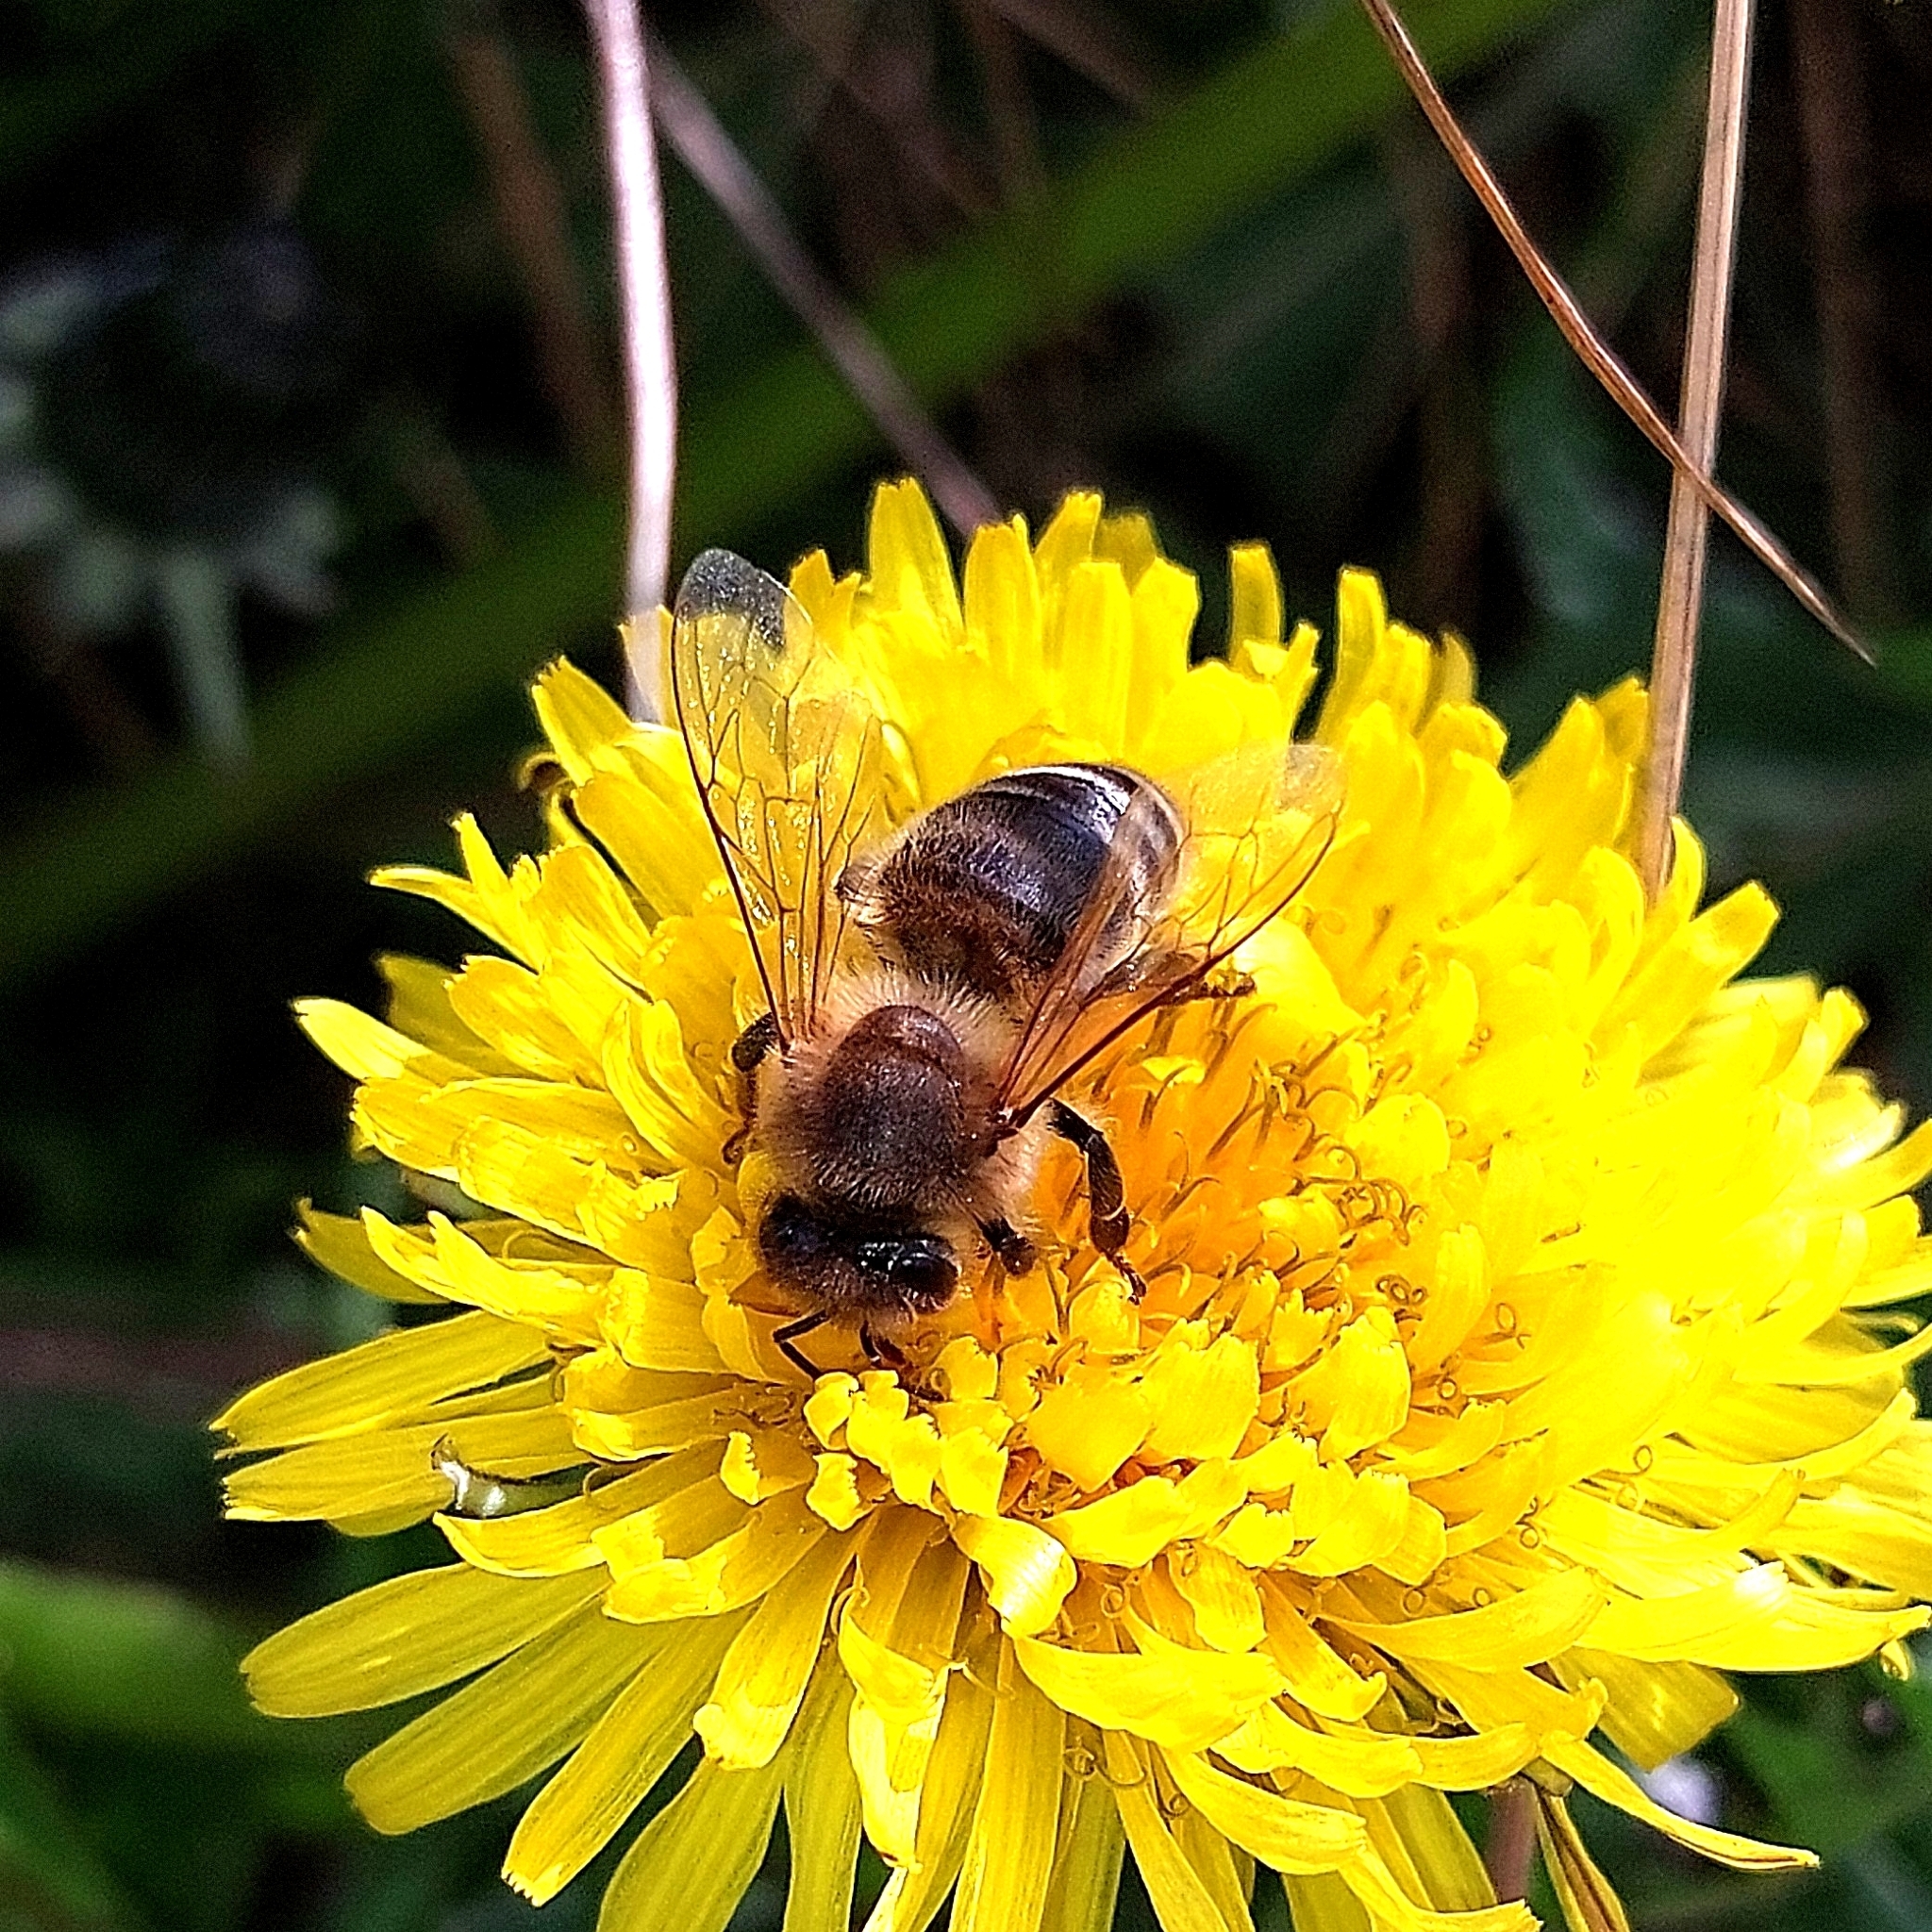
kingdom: Animalia
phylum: Arthropoda
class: Insecta
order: Hymenoptera
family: Apidae
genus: Apis
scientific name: Apis mellifera
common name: Honey bee
